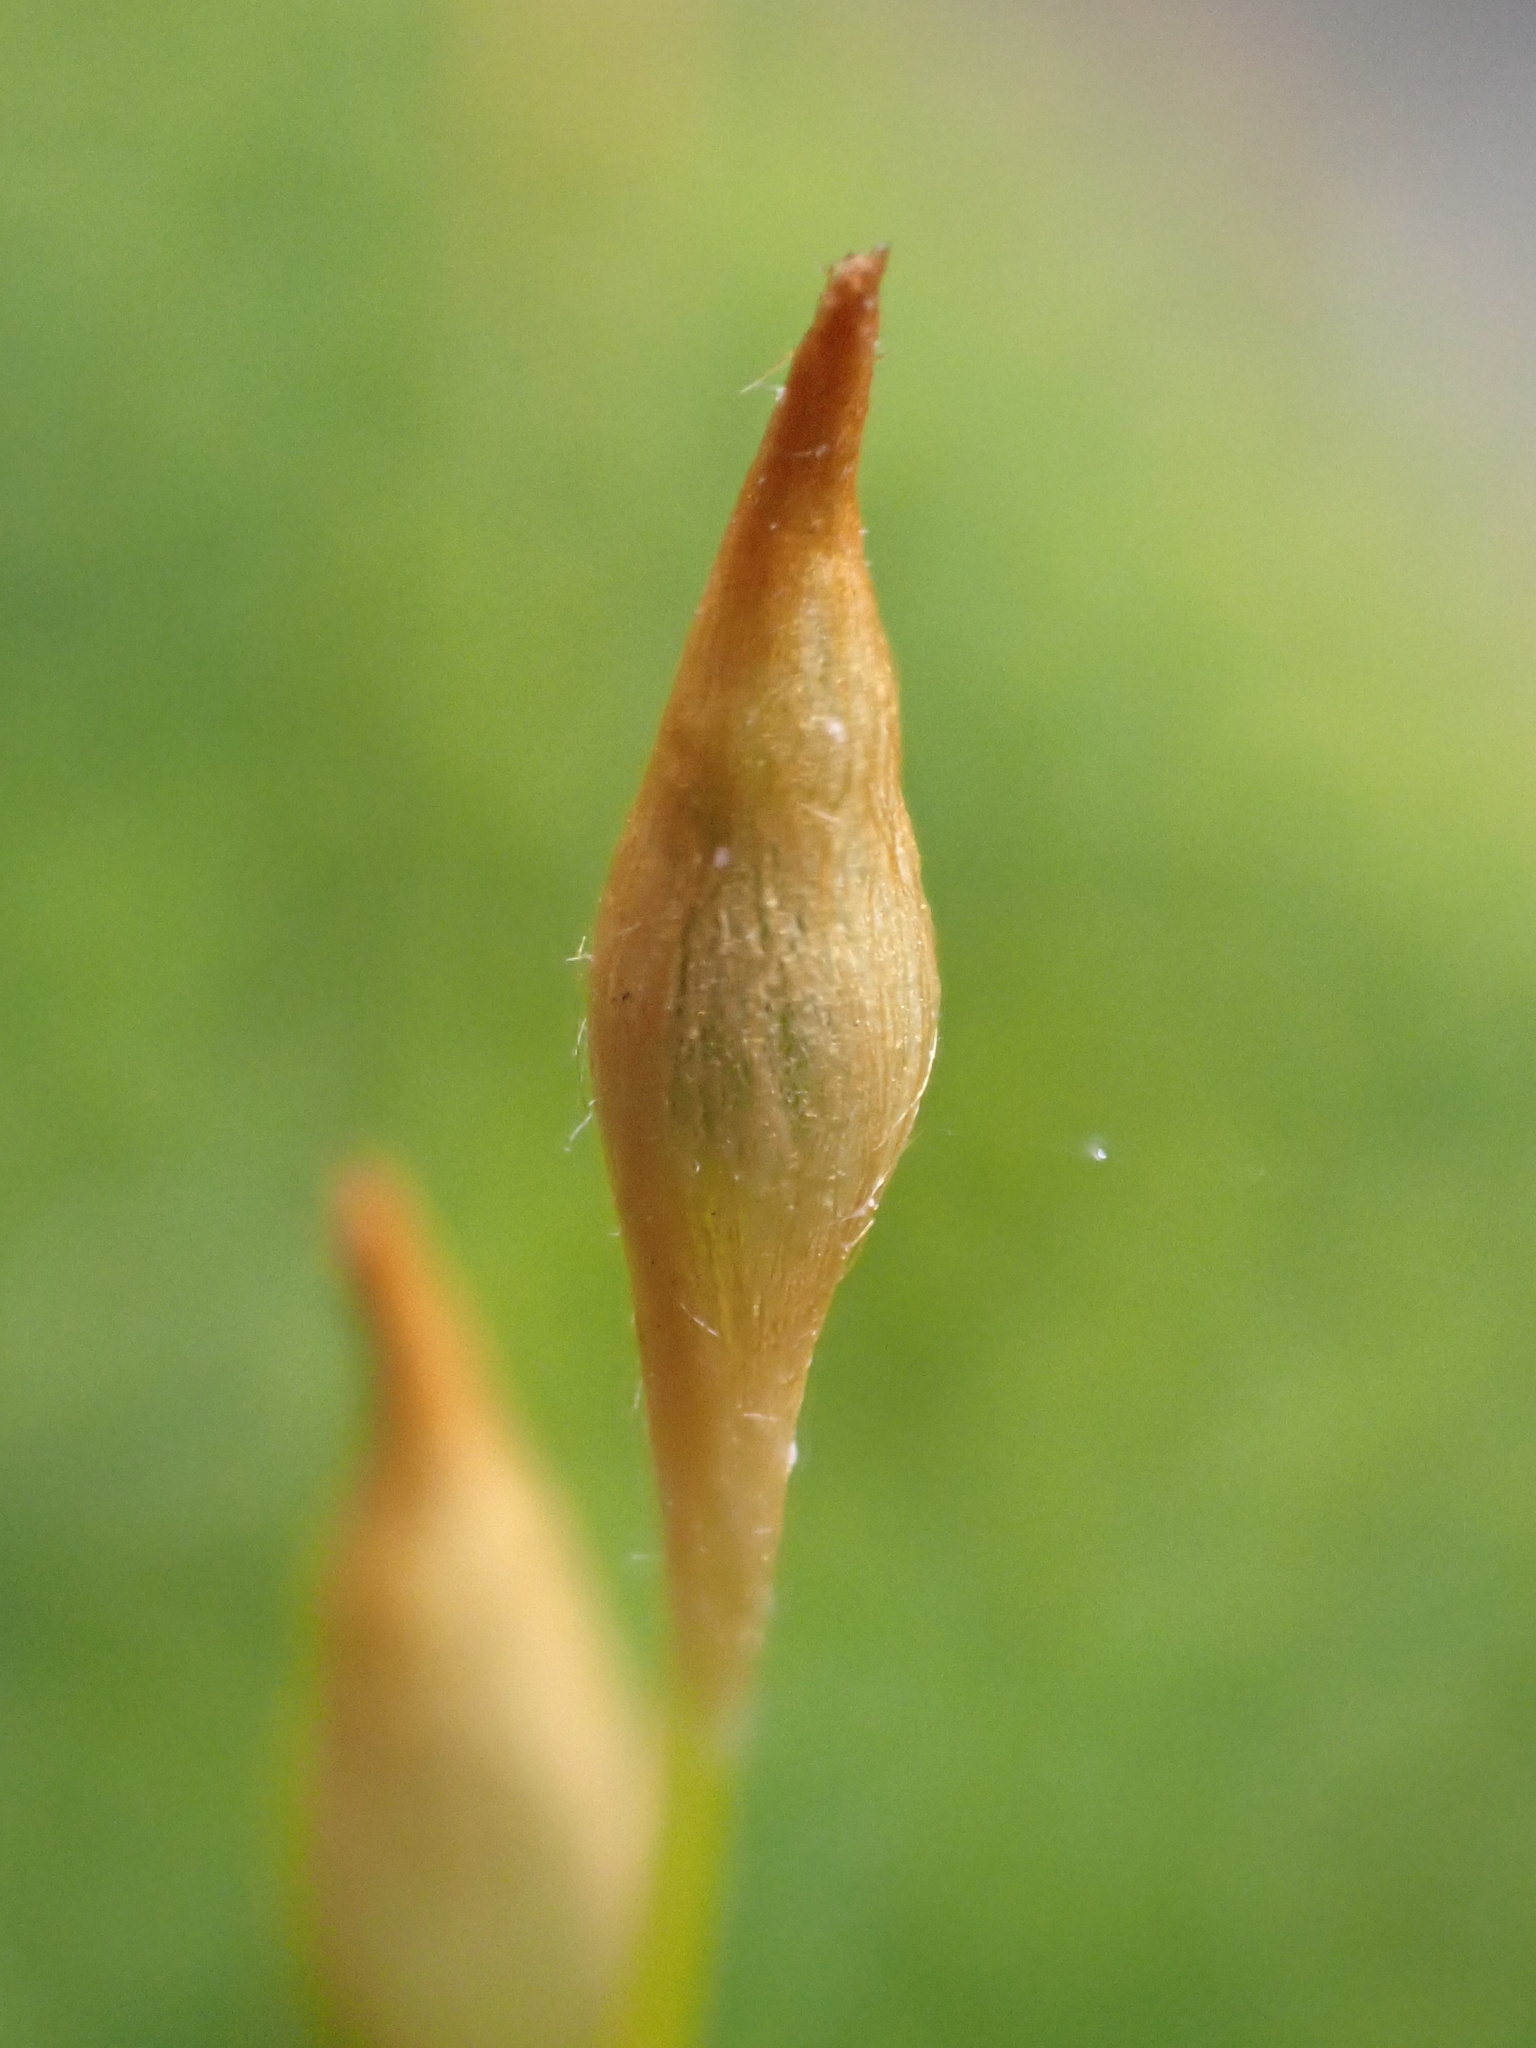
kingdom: Plantae
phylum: Bryophyta
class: Polytrichopsida
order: Polytrichales
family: Polytrichaceae
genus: Polytrichum
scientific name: Polytrichum formosum
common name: Bank haircap moss
